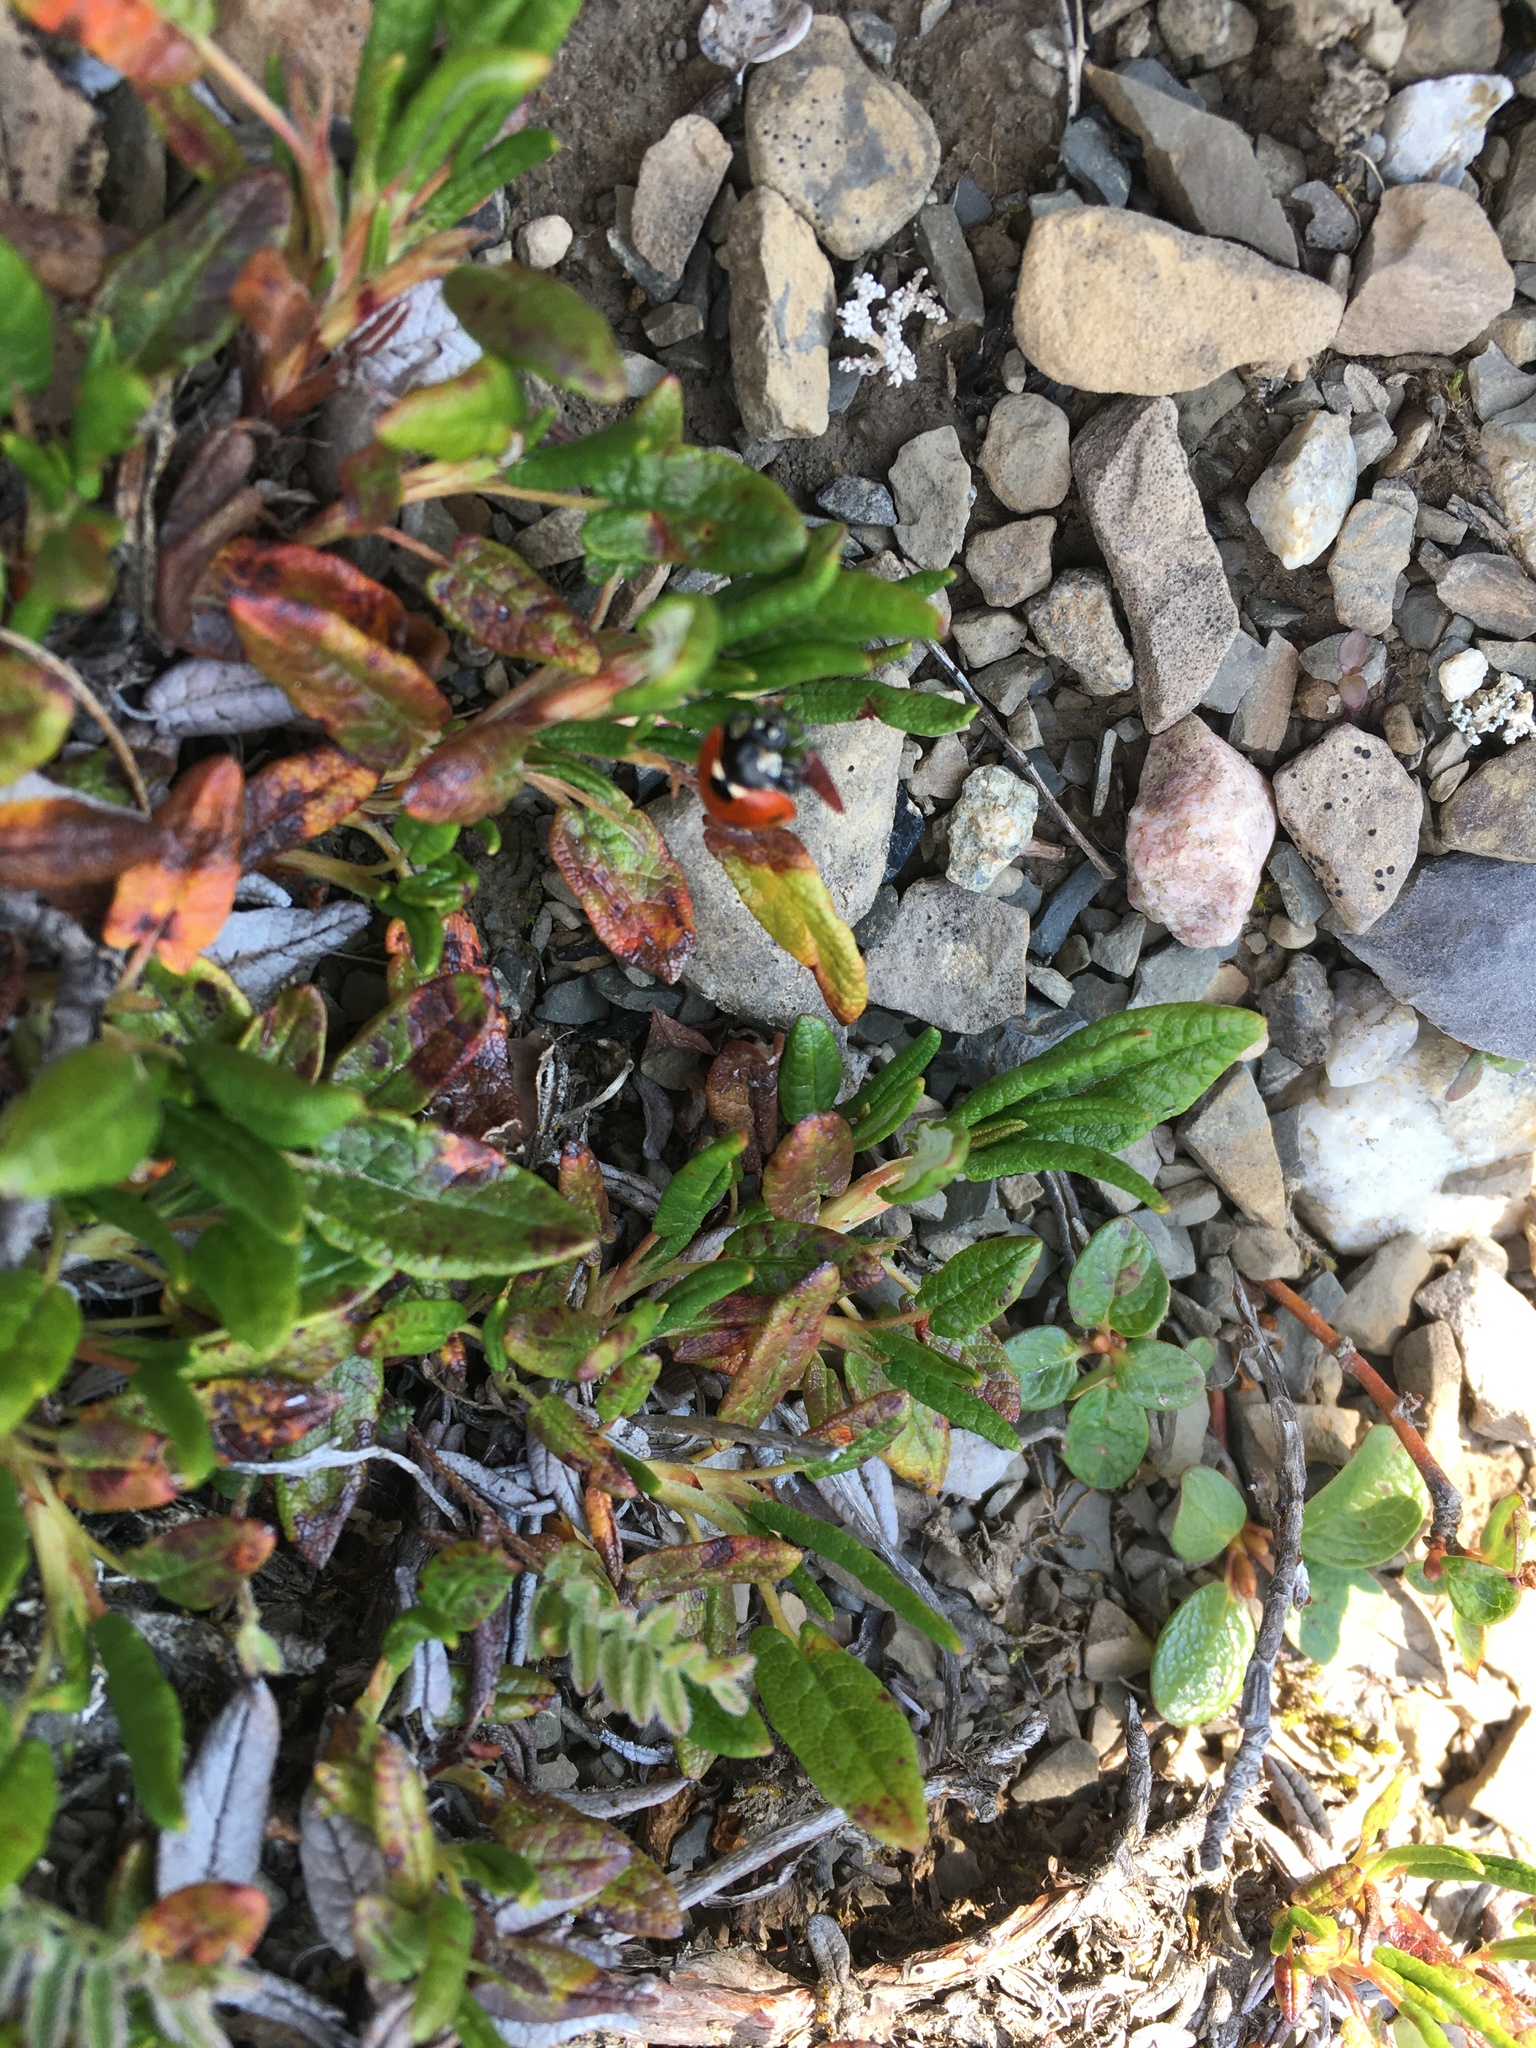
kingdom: Animalia
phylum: Arthropoda
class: Insecta
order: Coleoptera
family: Coccinellidae
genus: Coccinella
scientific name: Coccinella septempunctata
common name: Sevenspotted lady beetle
